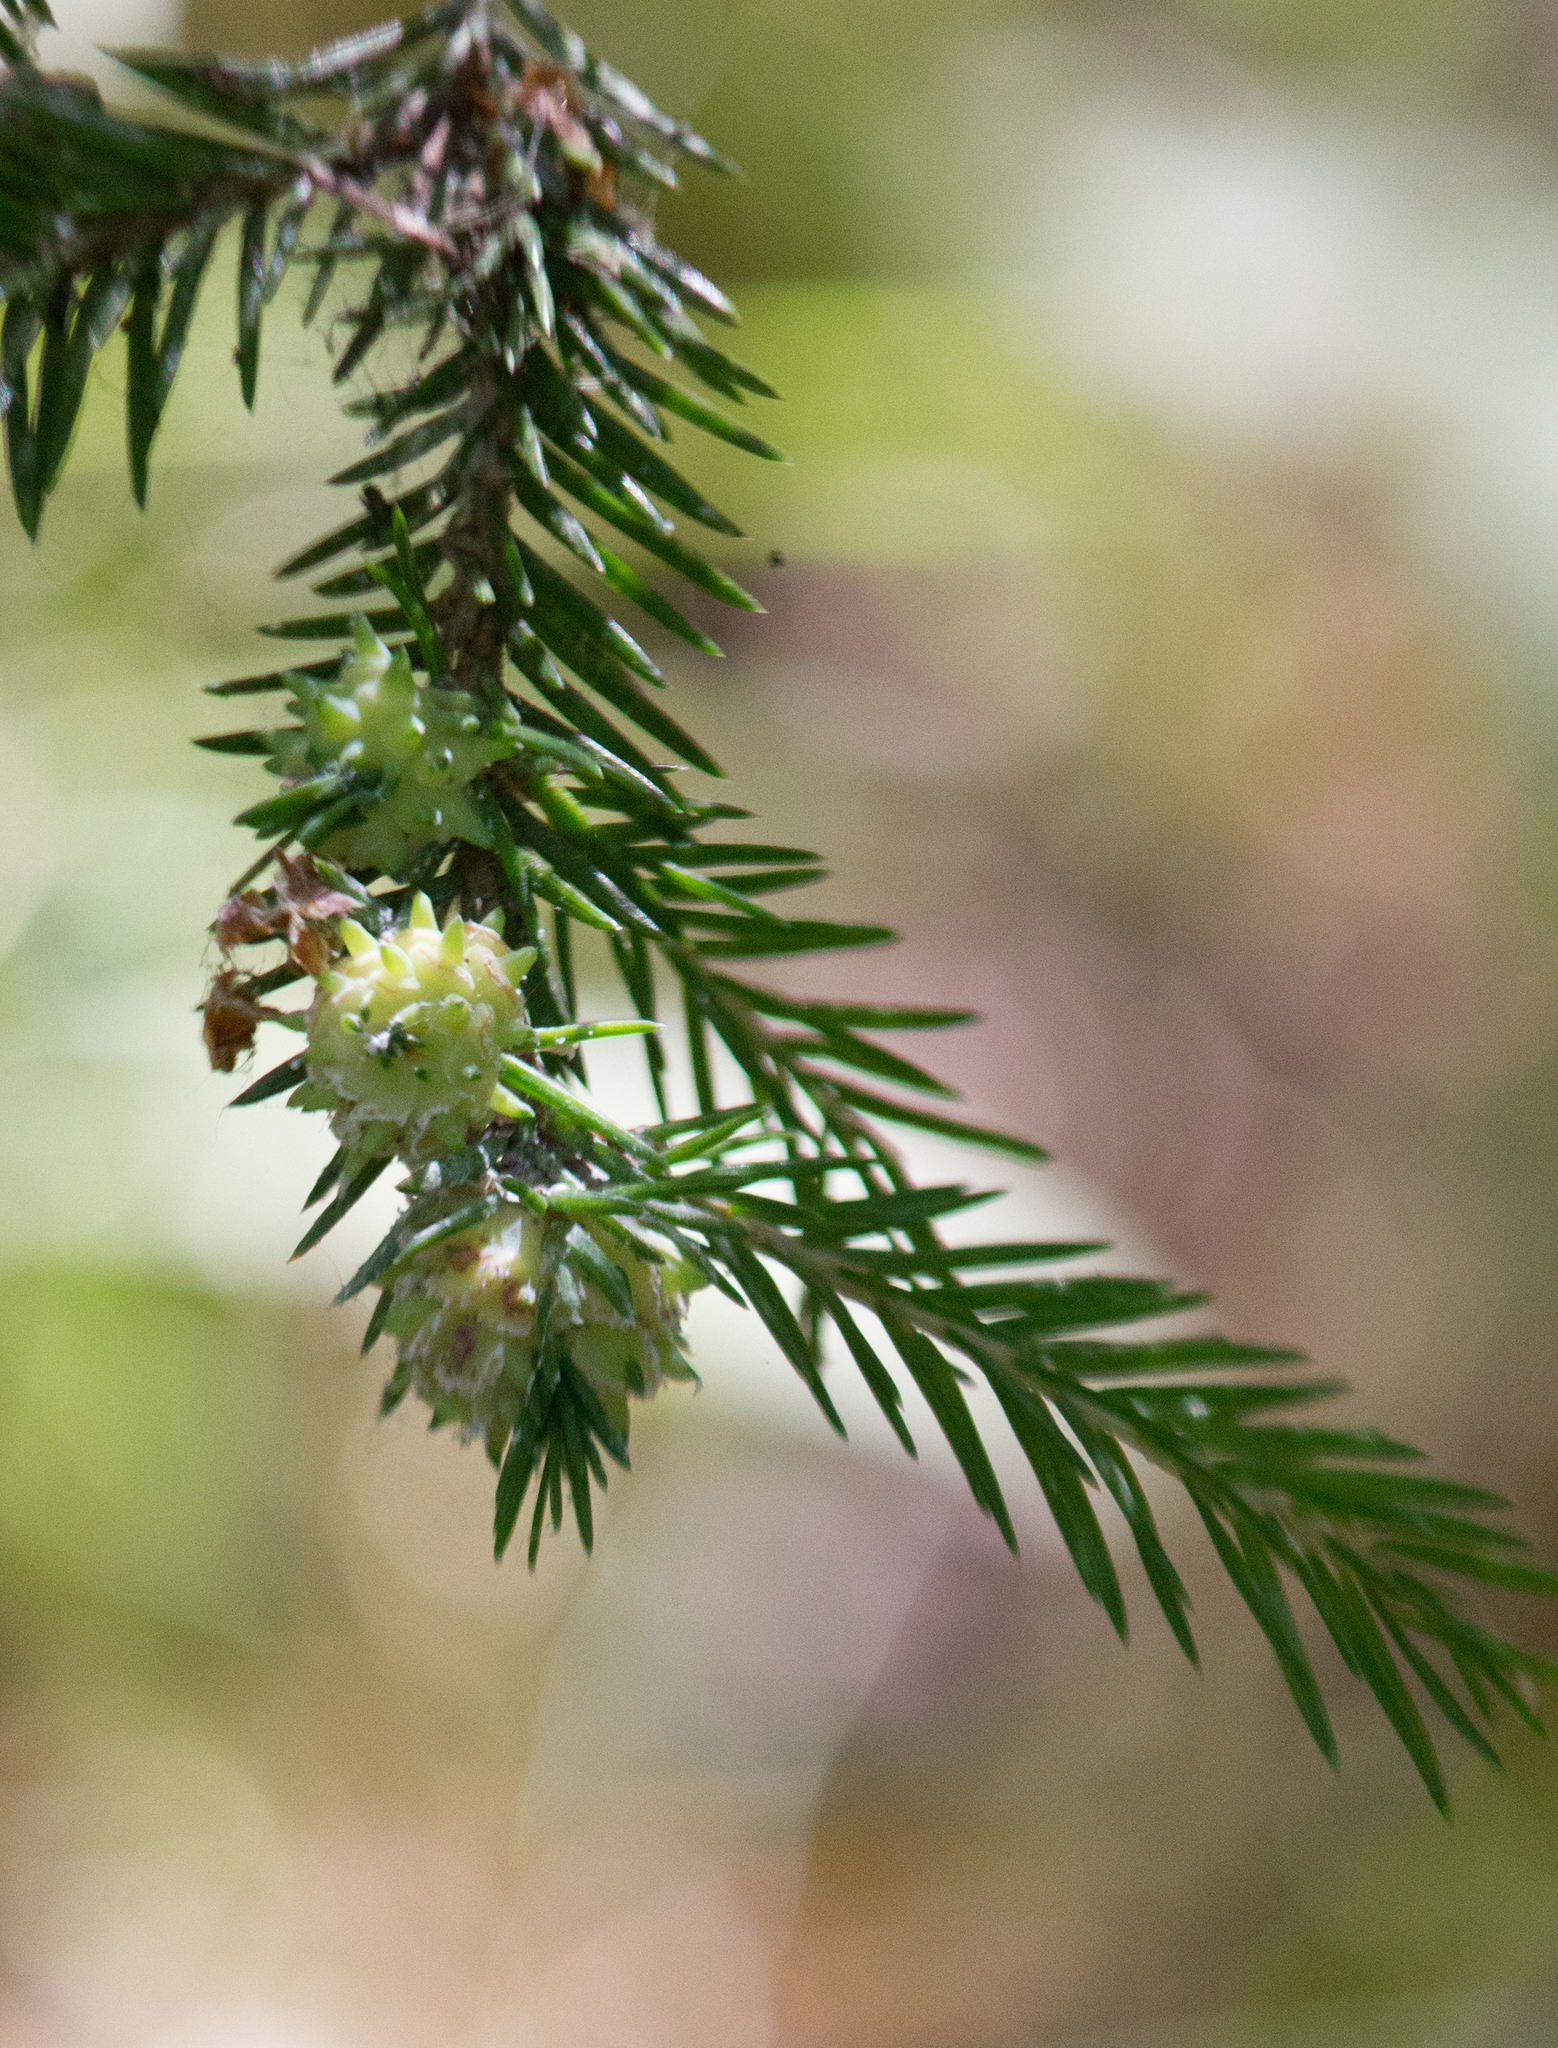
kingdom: Plantae
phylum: Tracheophyta
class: Pinopsida
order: Pinales
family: Pinaceae
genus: Picea
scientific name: Picea abies
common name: Norway spruce
